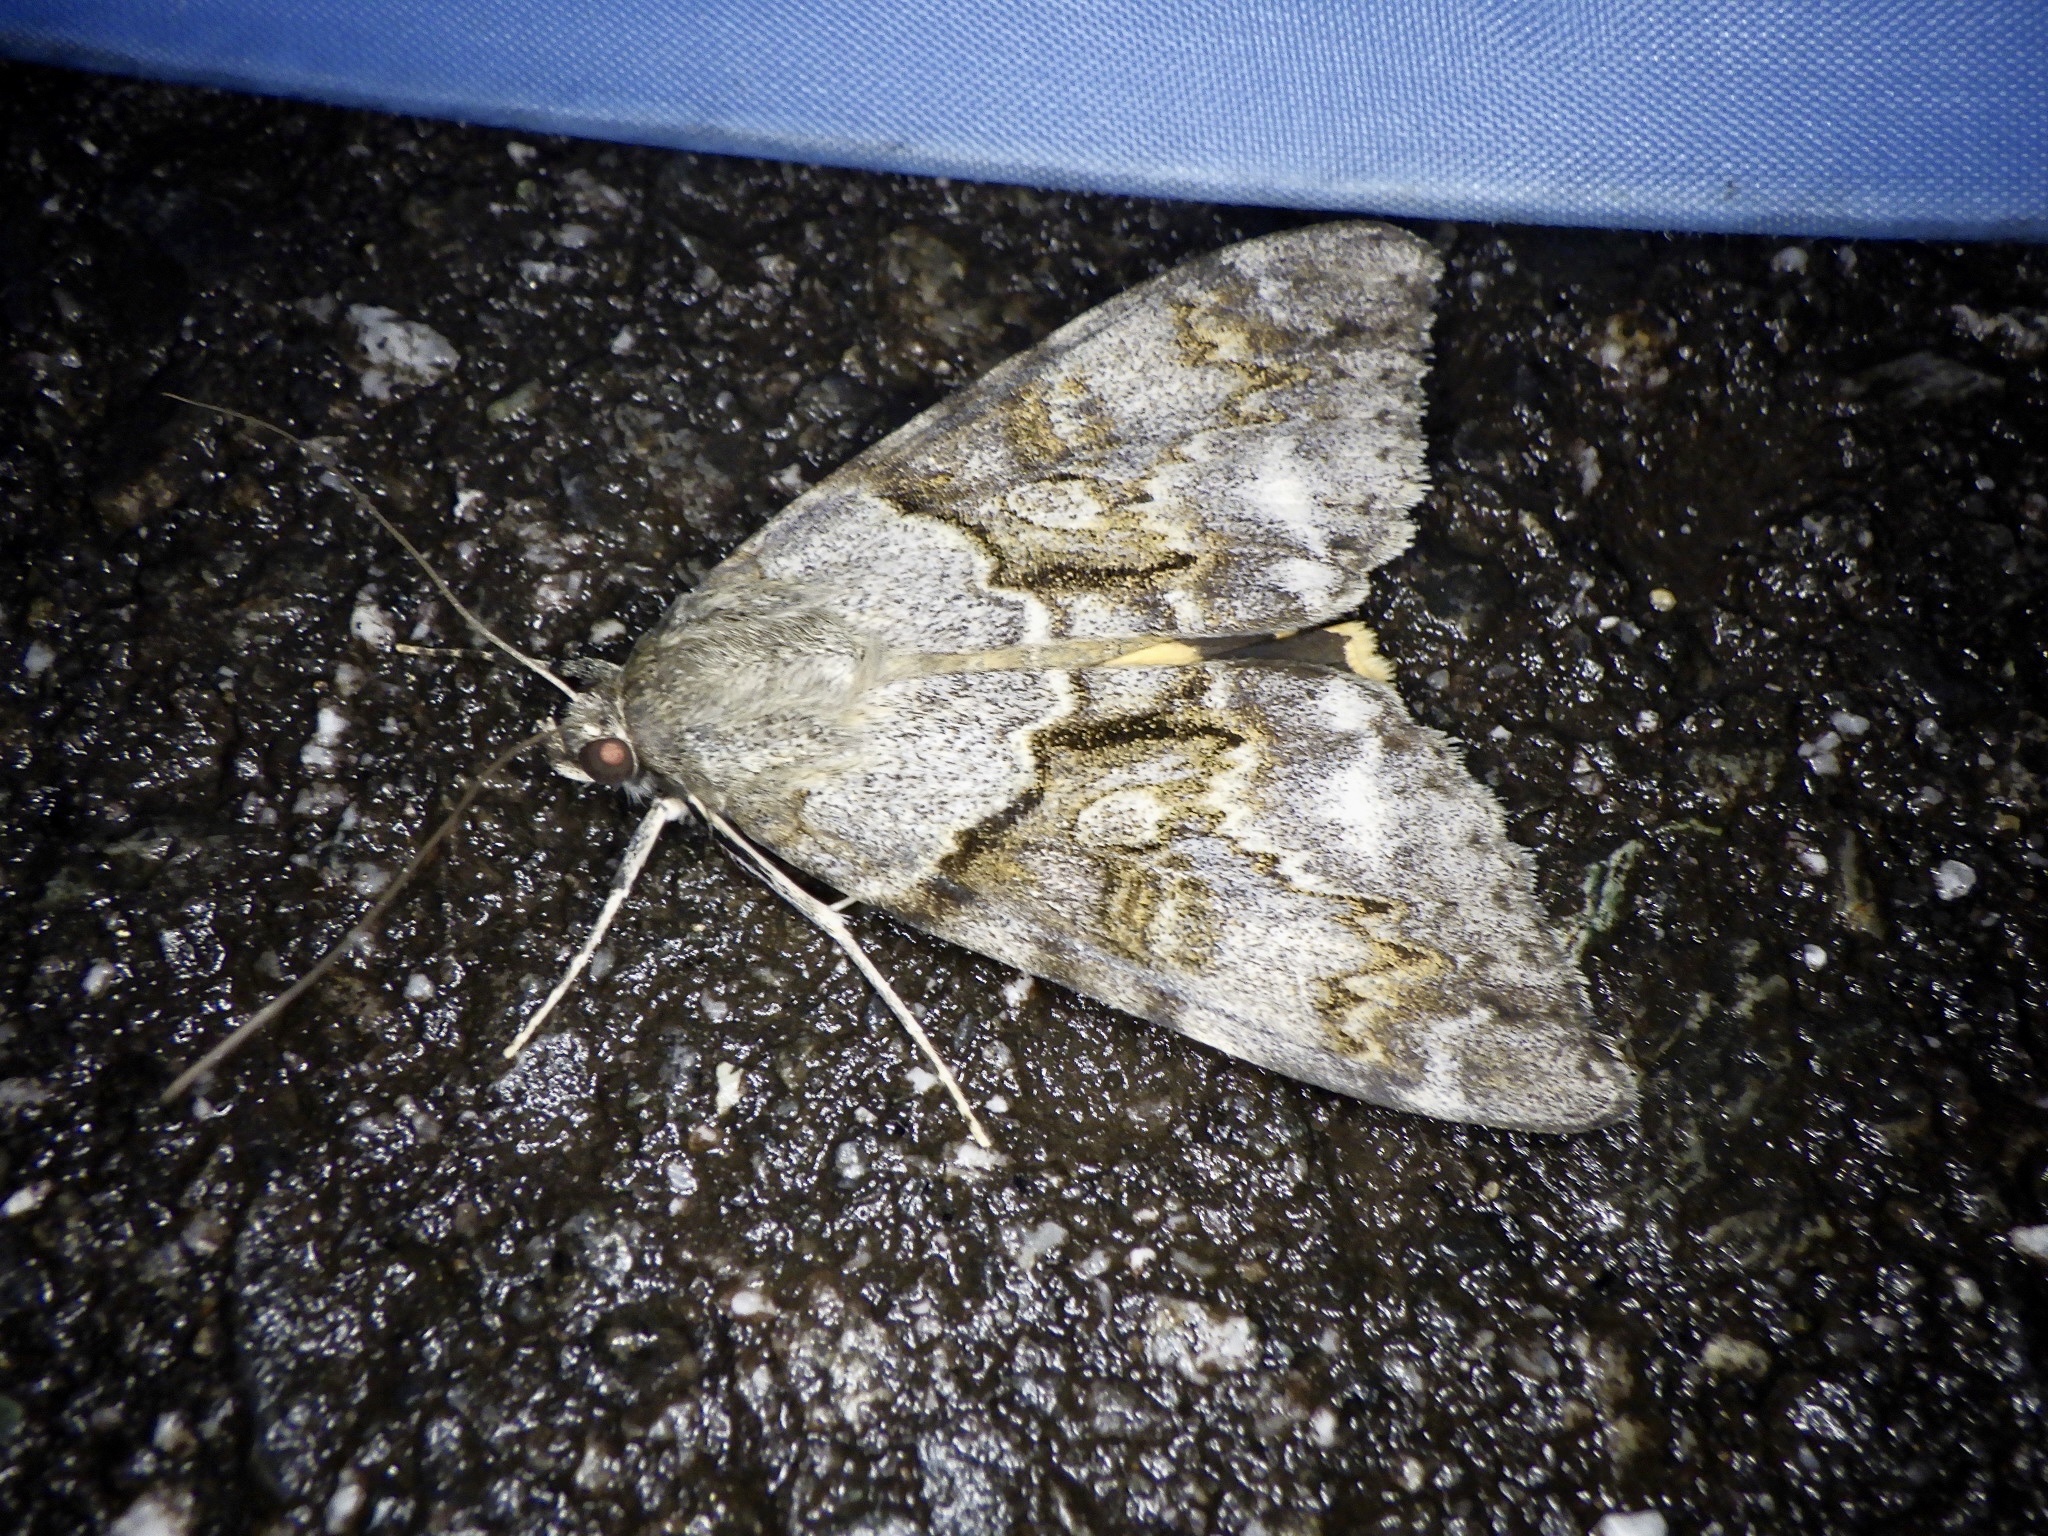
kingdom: Animalia
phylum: Arthropoda
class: Insecta
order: Lepidoptera
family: Erebidae
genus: Catocala
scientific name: Catocala jonasii
